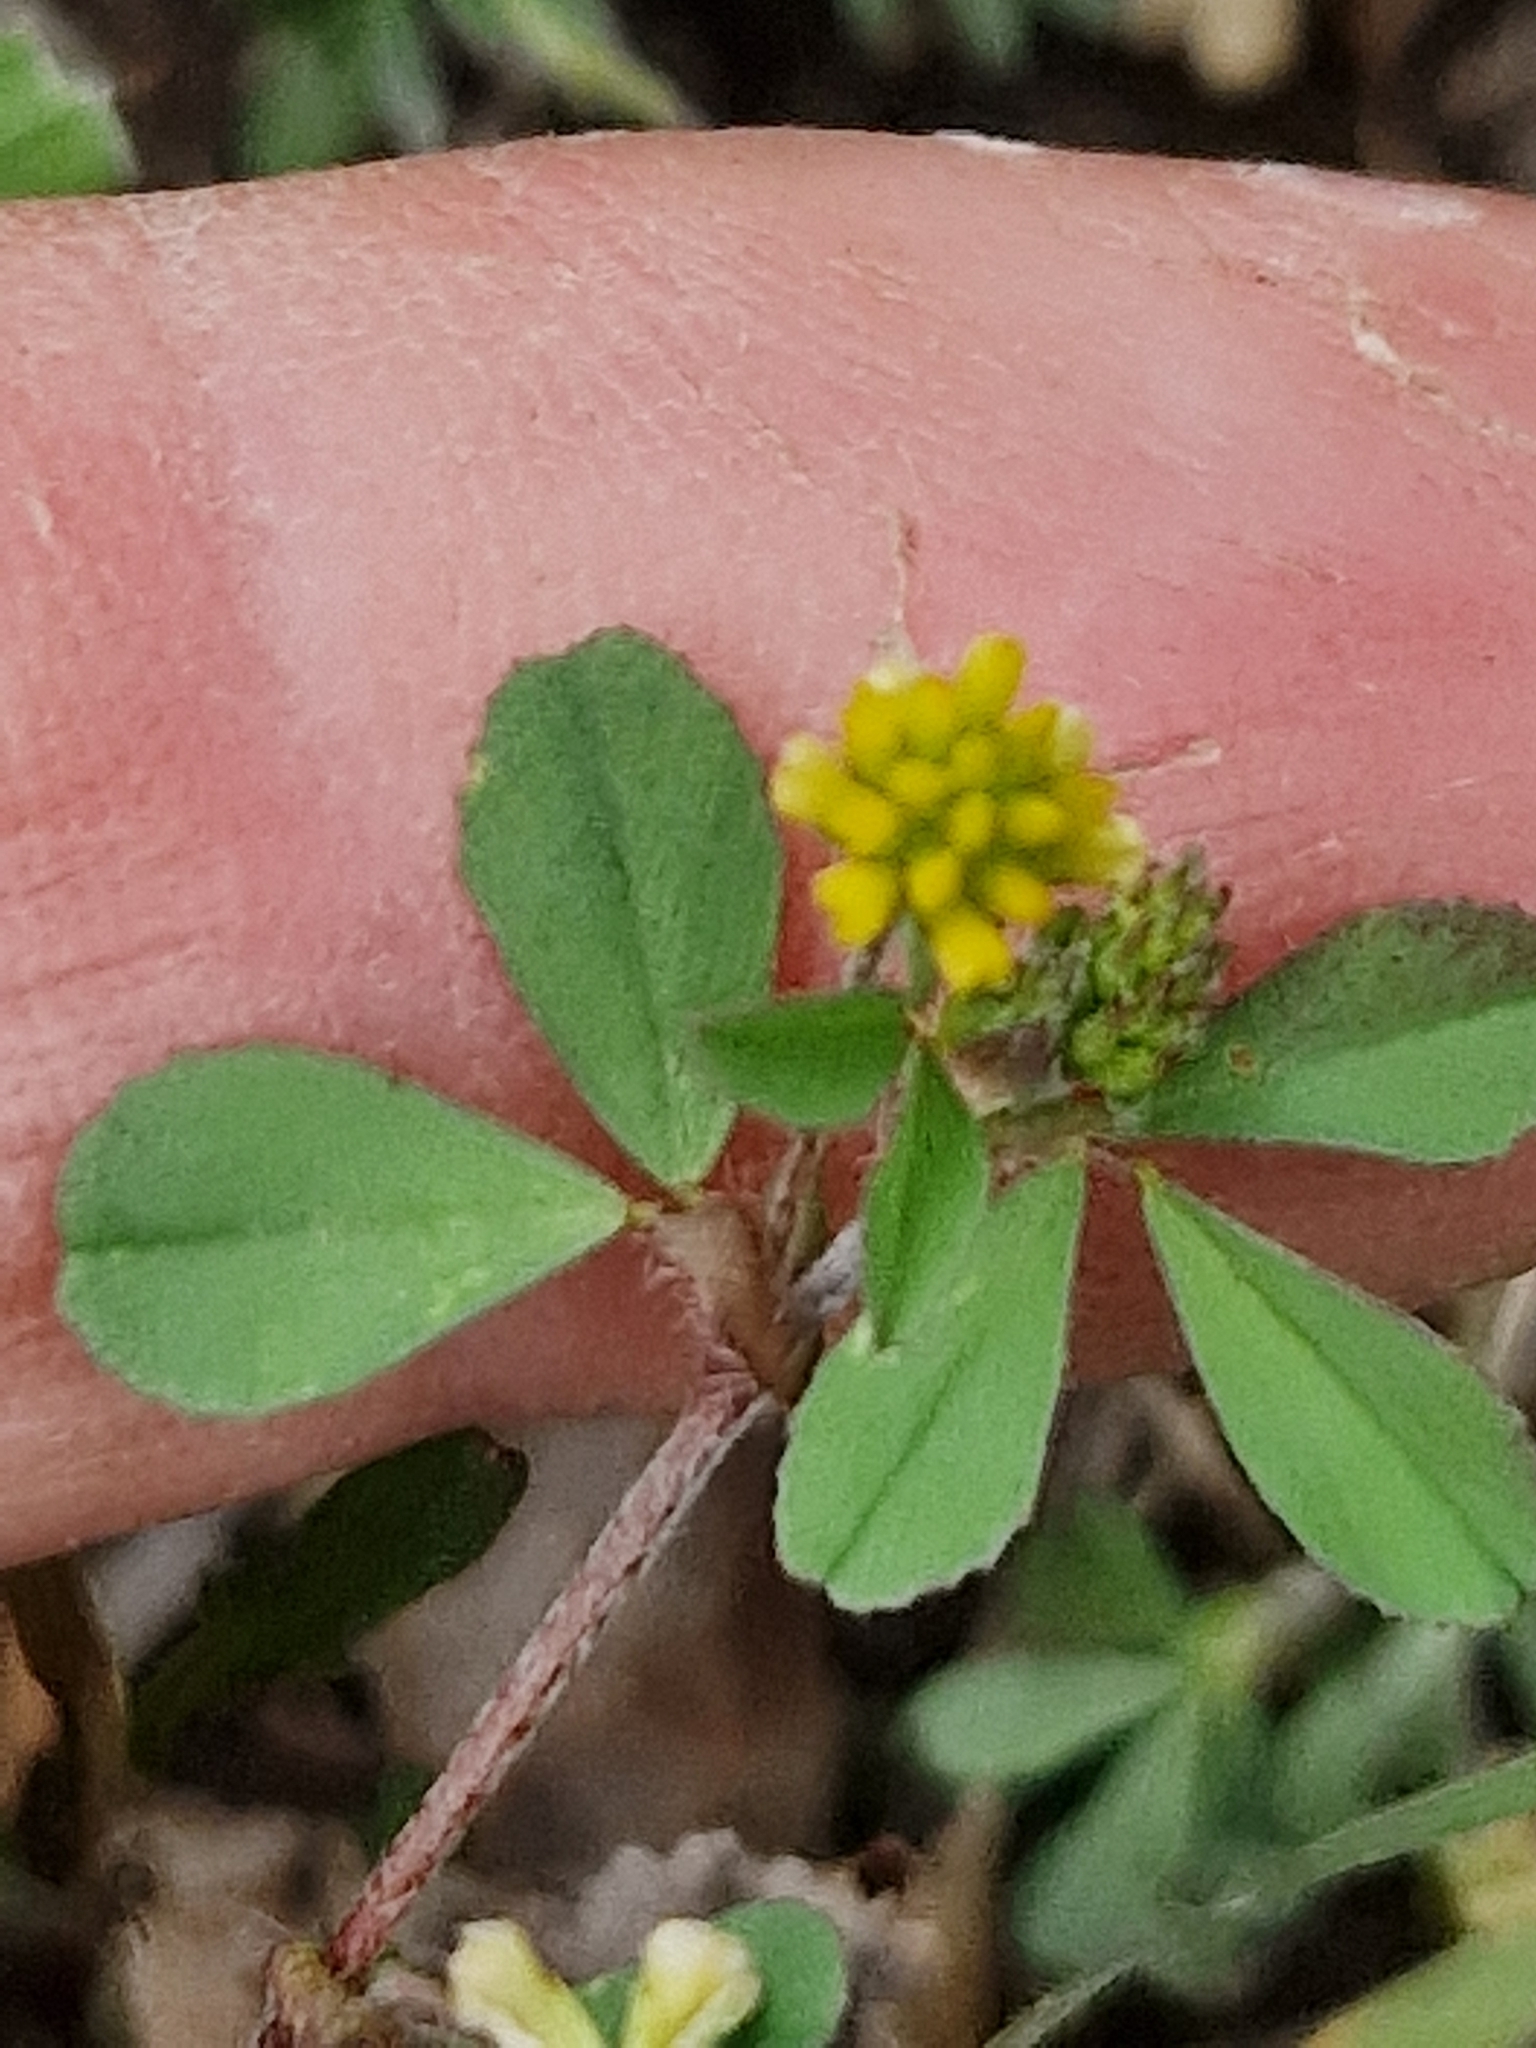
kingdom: Plantae
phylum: Tracheophyta
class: Magnoliopsida
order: Fabales
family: Fabaceae
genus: Trifolium
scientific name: Trifolium dubium
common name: Suckling clover
